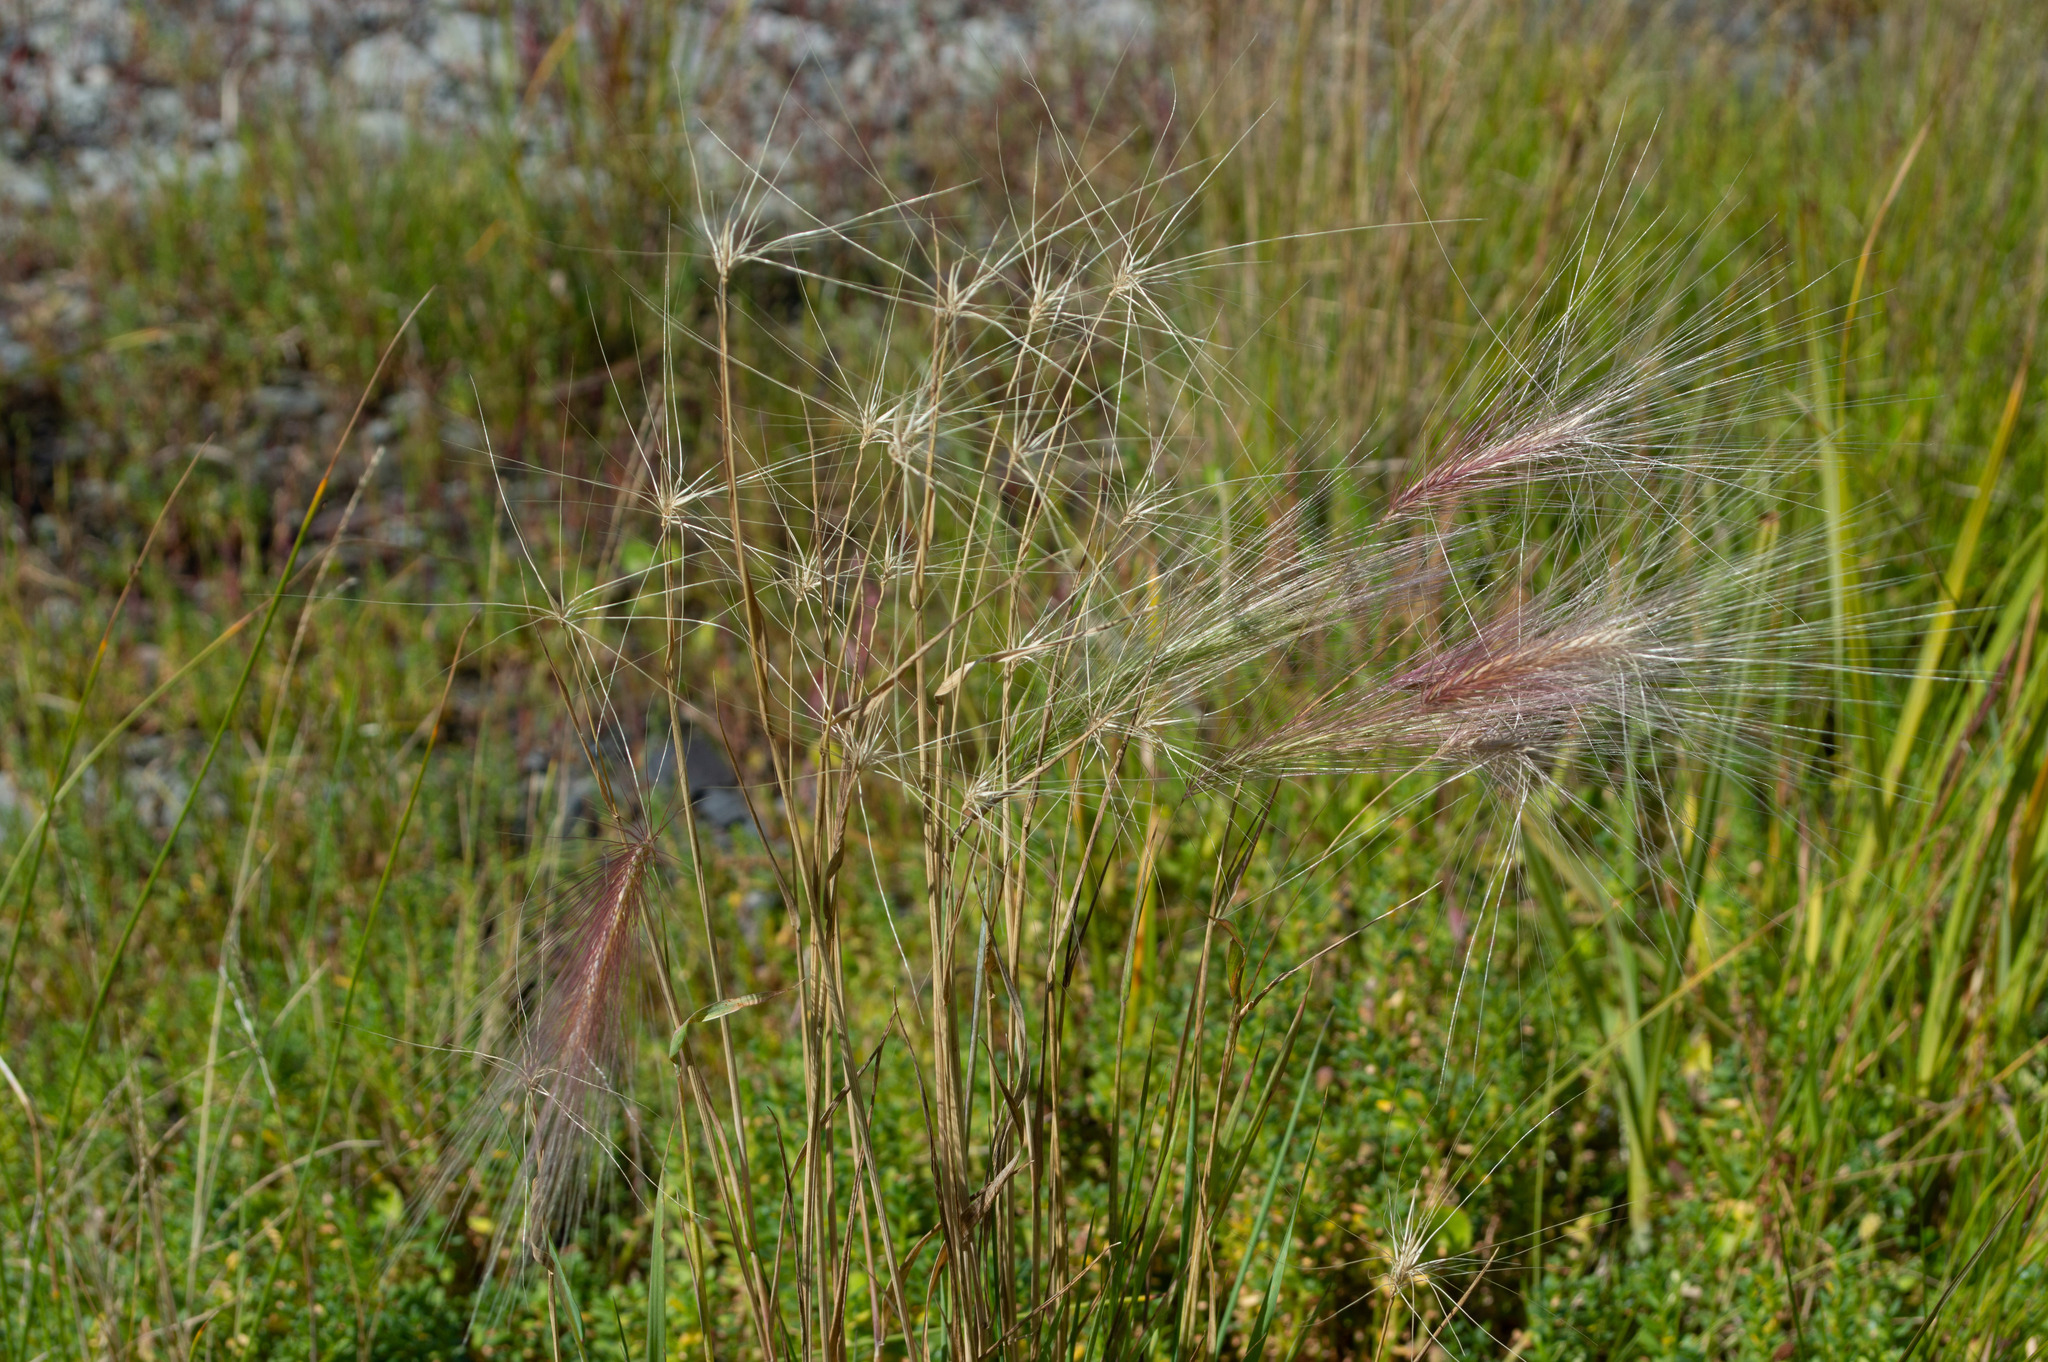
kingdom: Plantae
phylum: Tracheophyta
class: Liliopsida
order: Poales
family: Poaceae
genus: Hordeum
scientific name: Hordeum jubatum
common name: Foxtail barley
